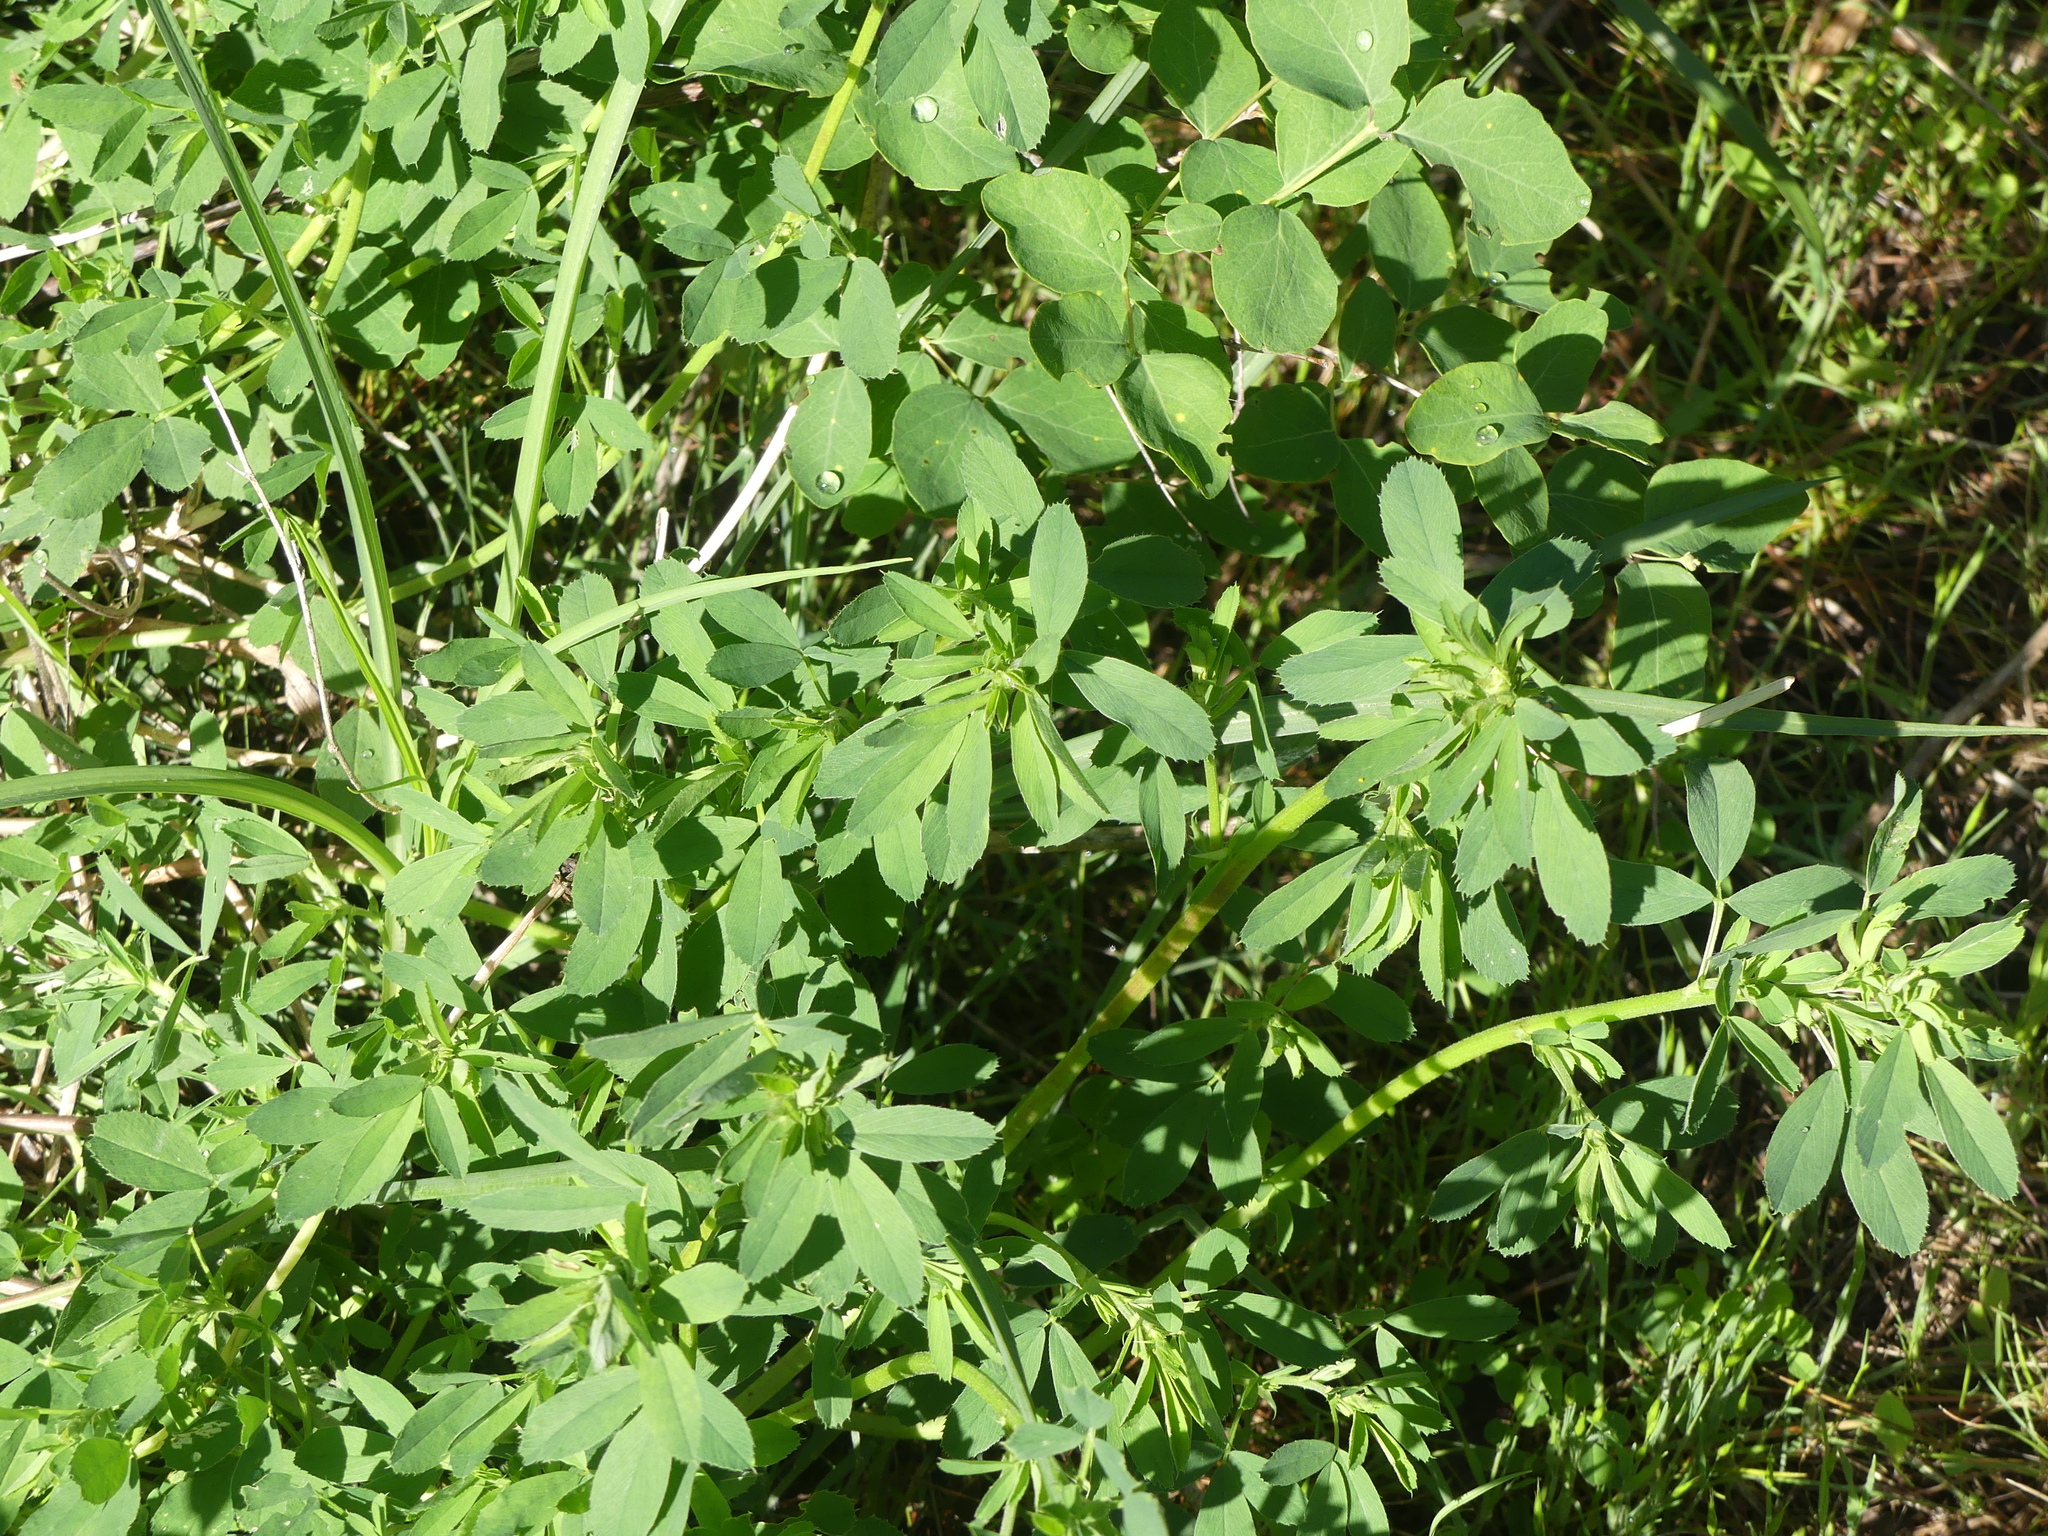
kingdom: Plantae
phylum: Tracheophyta
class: Magnoliopsida
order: Fabales
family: Fabaceae
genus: Medicago
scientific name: Medicago sativa
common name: Alfalfa
